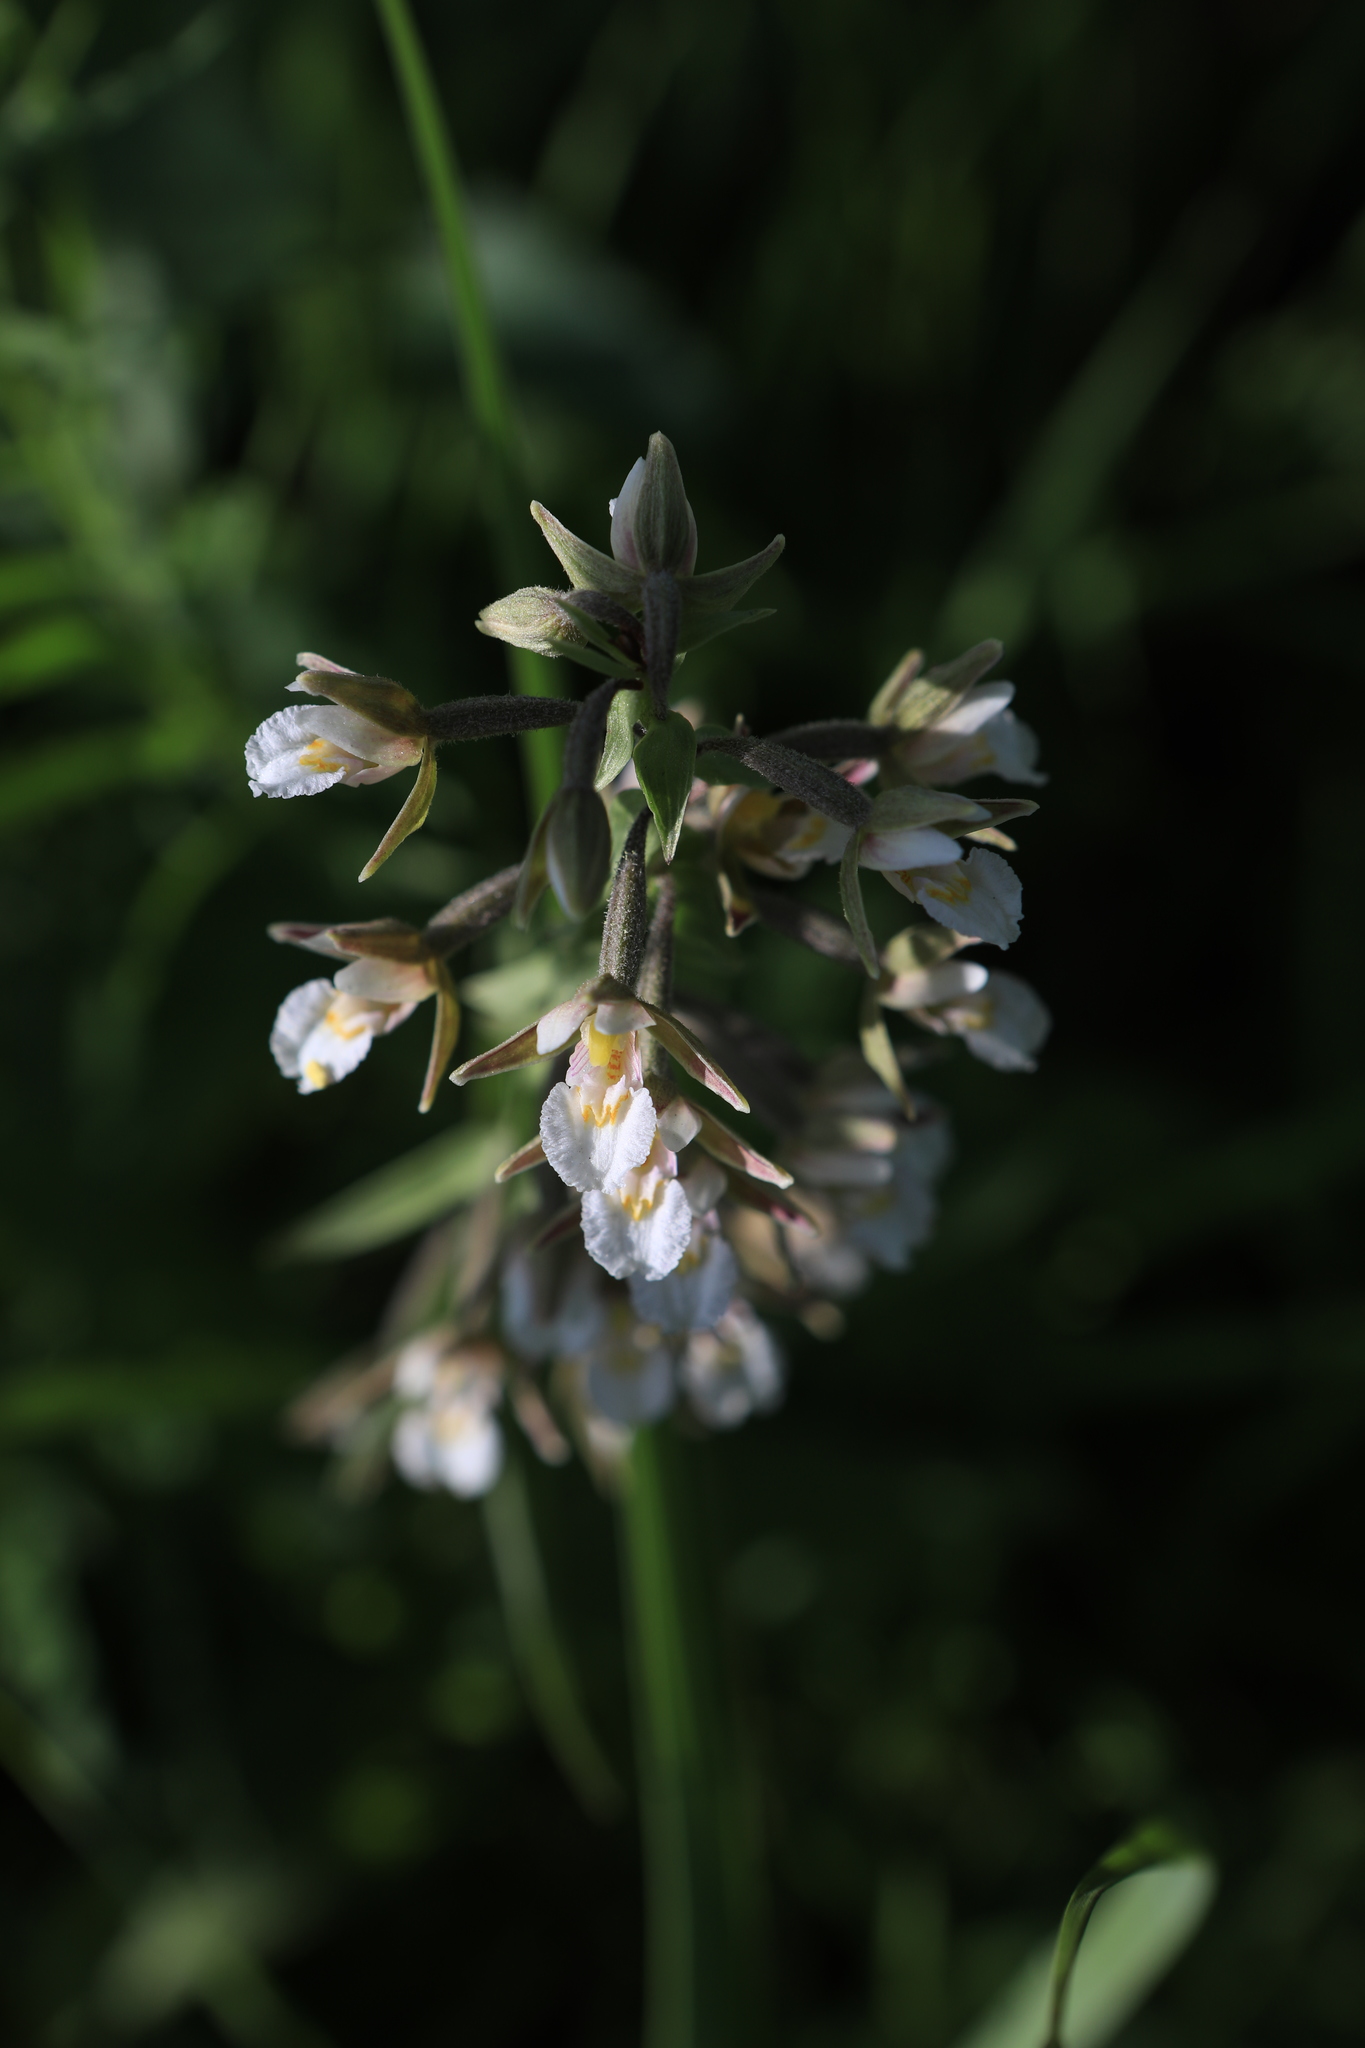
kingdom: Plantae
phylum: Tracheophyta
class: Liliopsida
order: Asparagales
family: Orchidaceae
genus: Epipactis
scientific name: Epipactis palustris
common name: Marsh helleborine
